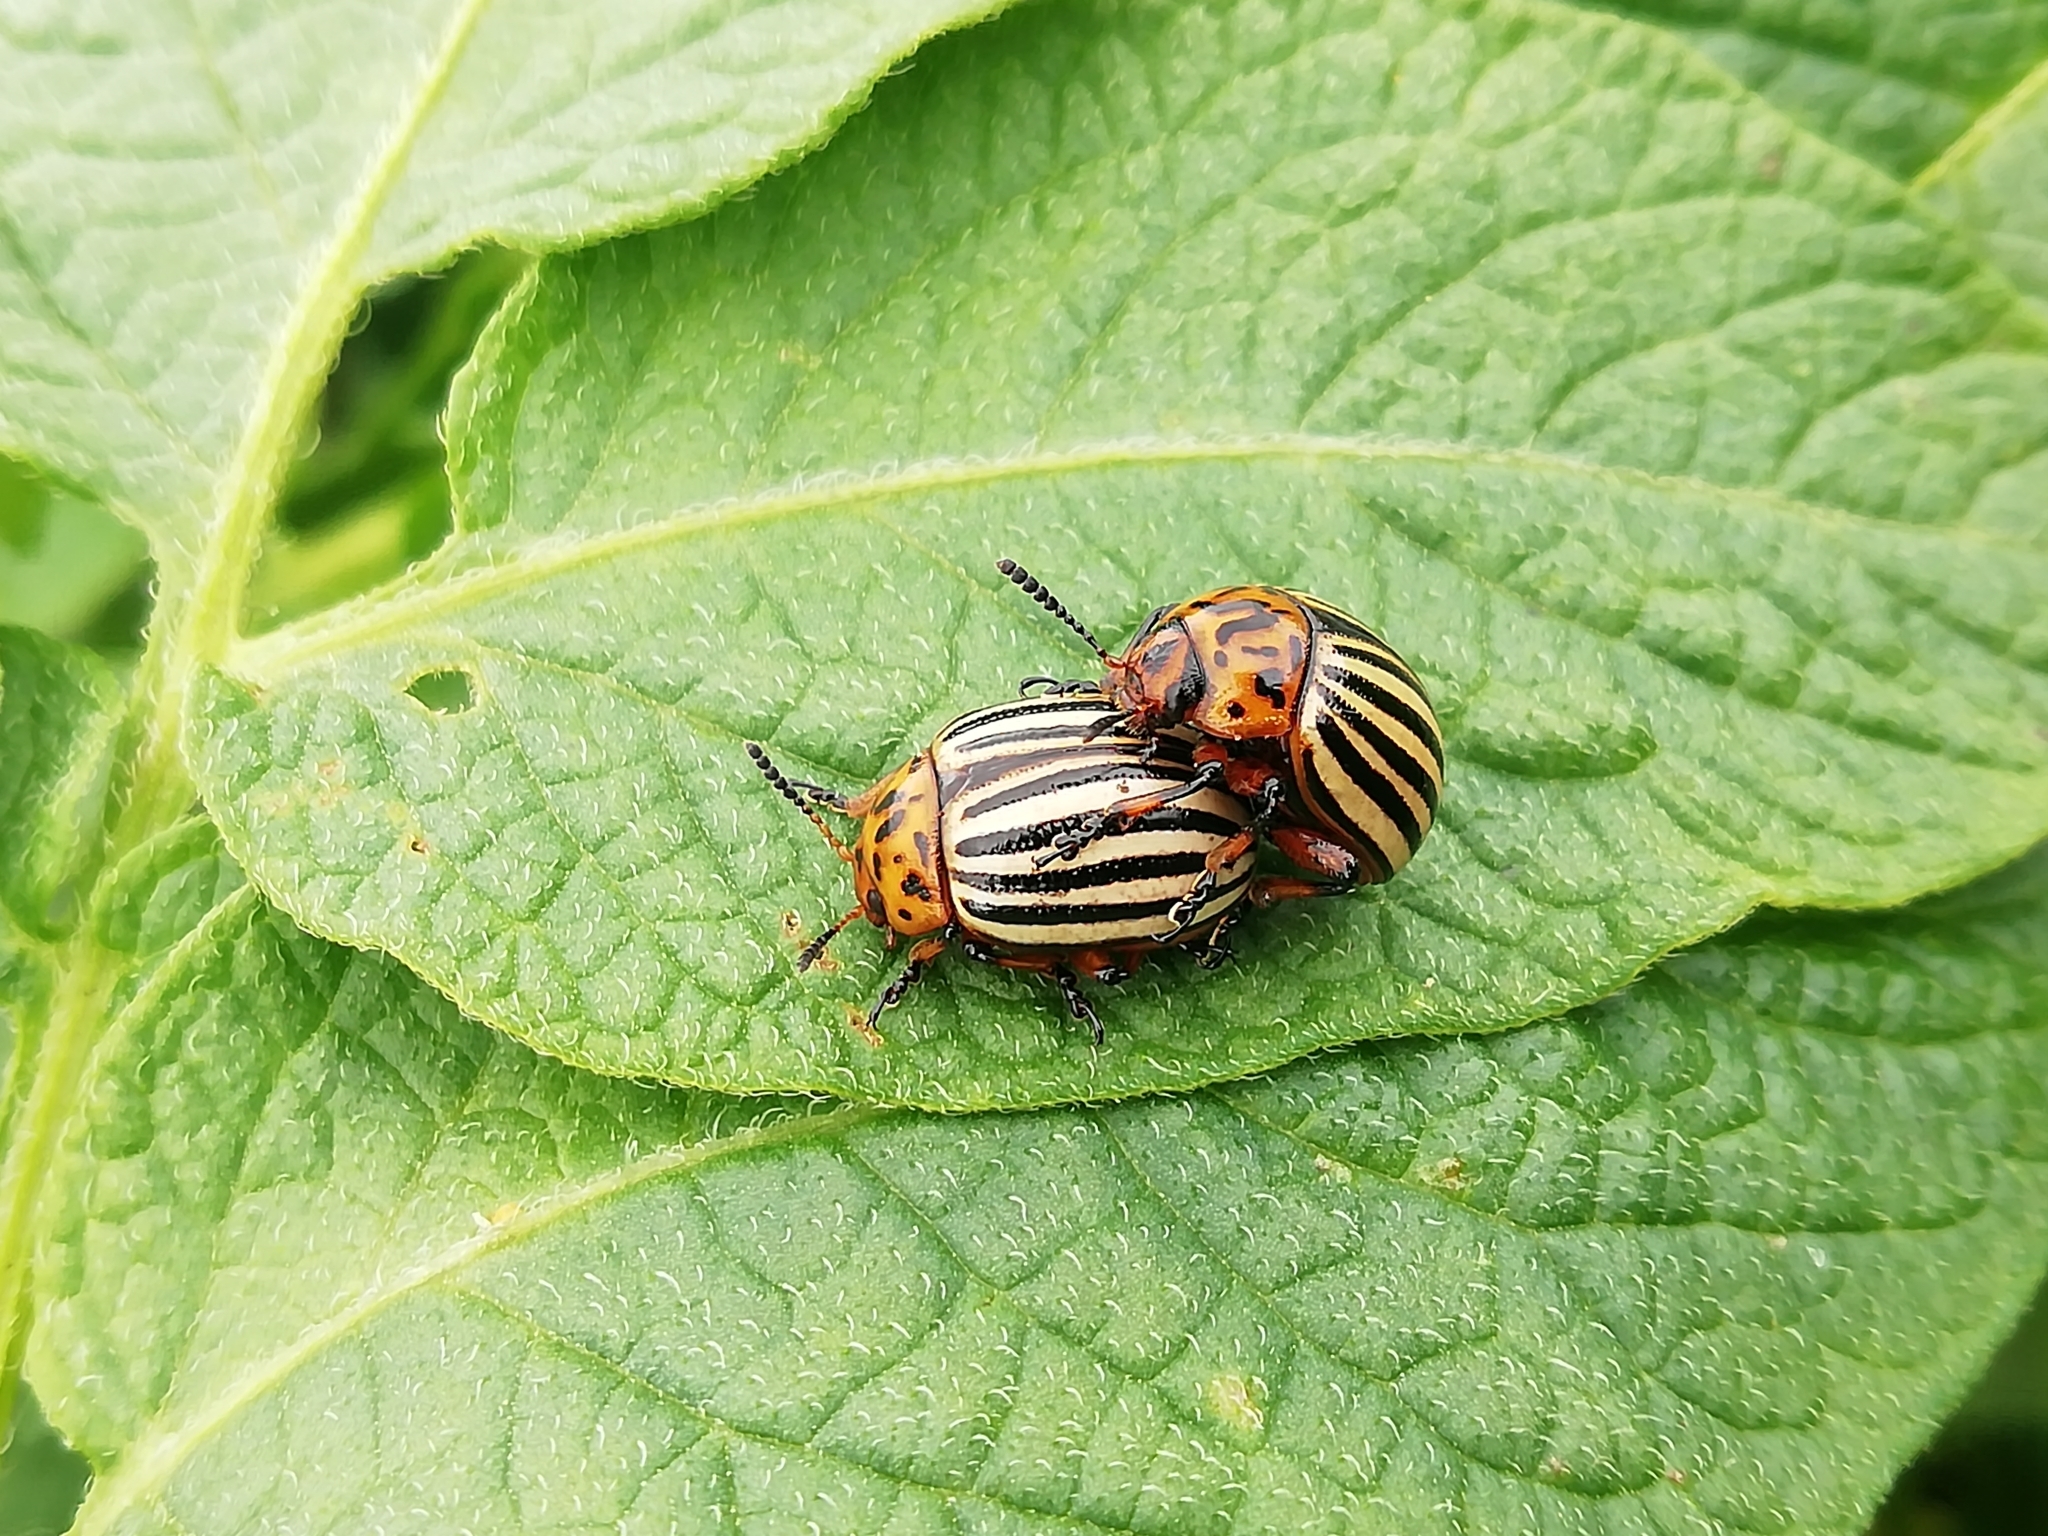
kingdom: Animalia
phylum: Arthropoda
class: Insecta
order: Coleoptera
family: Chrysomelidae
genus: Leptinotarsa
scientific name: Leptinotarsa decemlineata
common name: Colorado potato beetle
